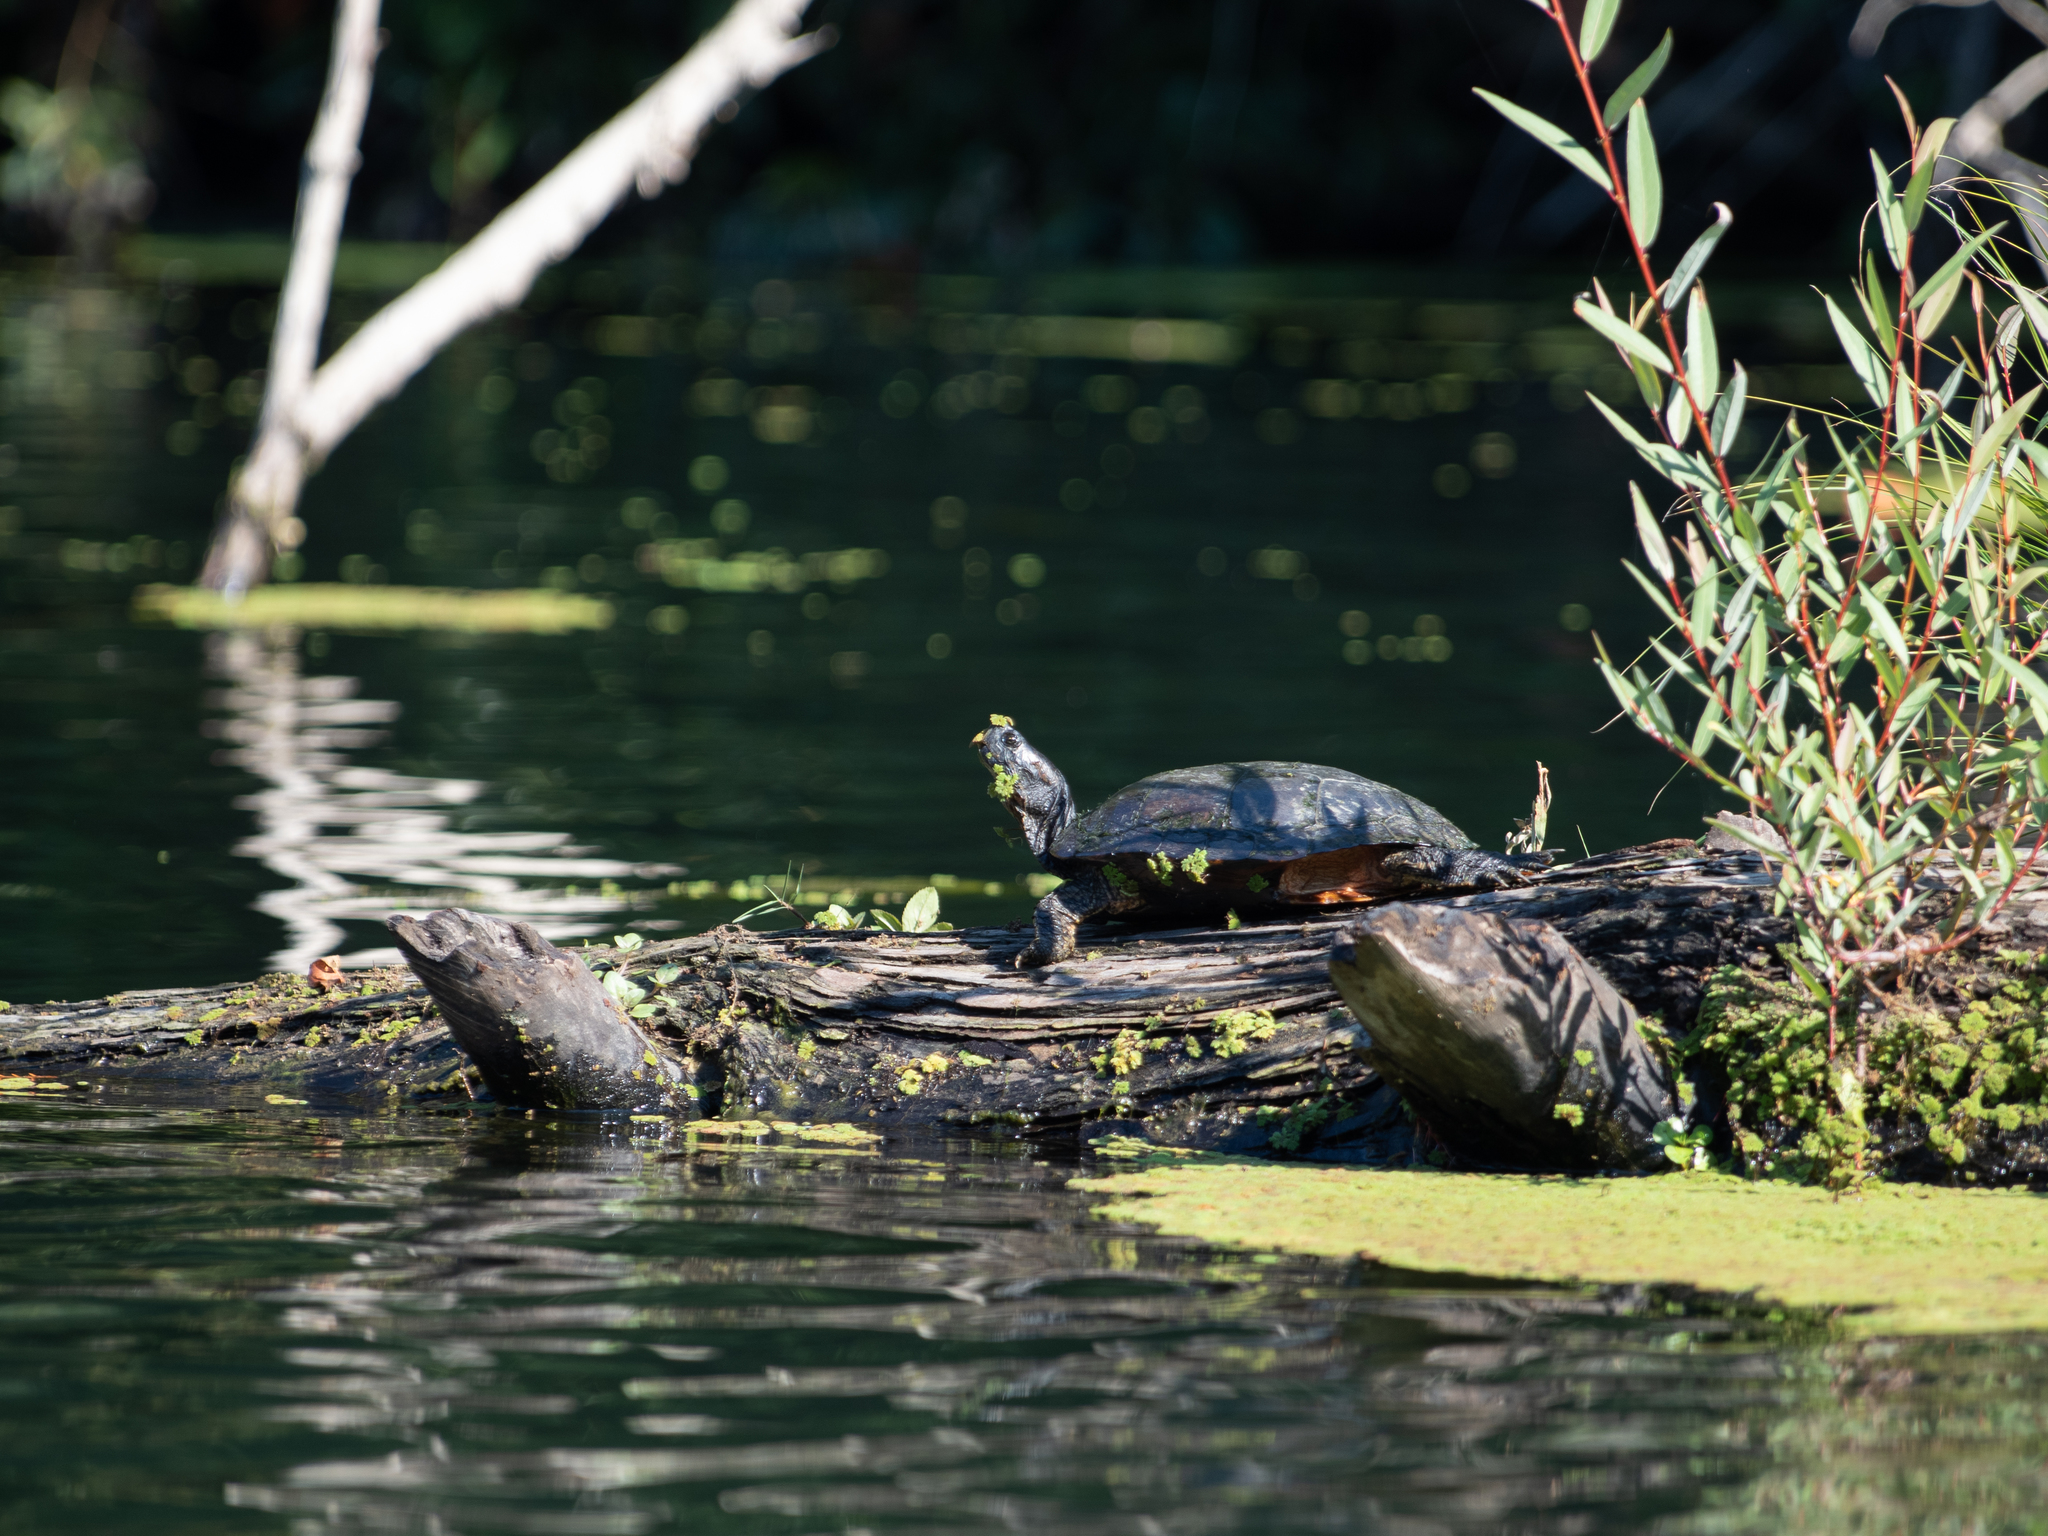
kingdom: Animalia
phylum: Chordata
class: Testudines
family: Emydidae
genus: Trachemys
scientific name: Trachemys scripta
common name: Slider
